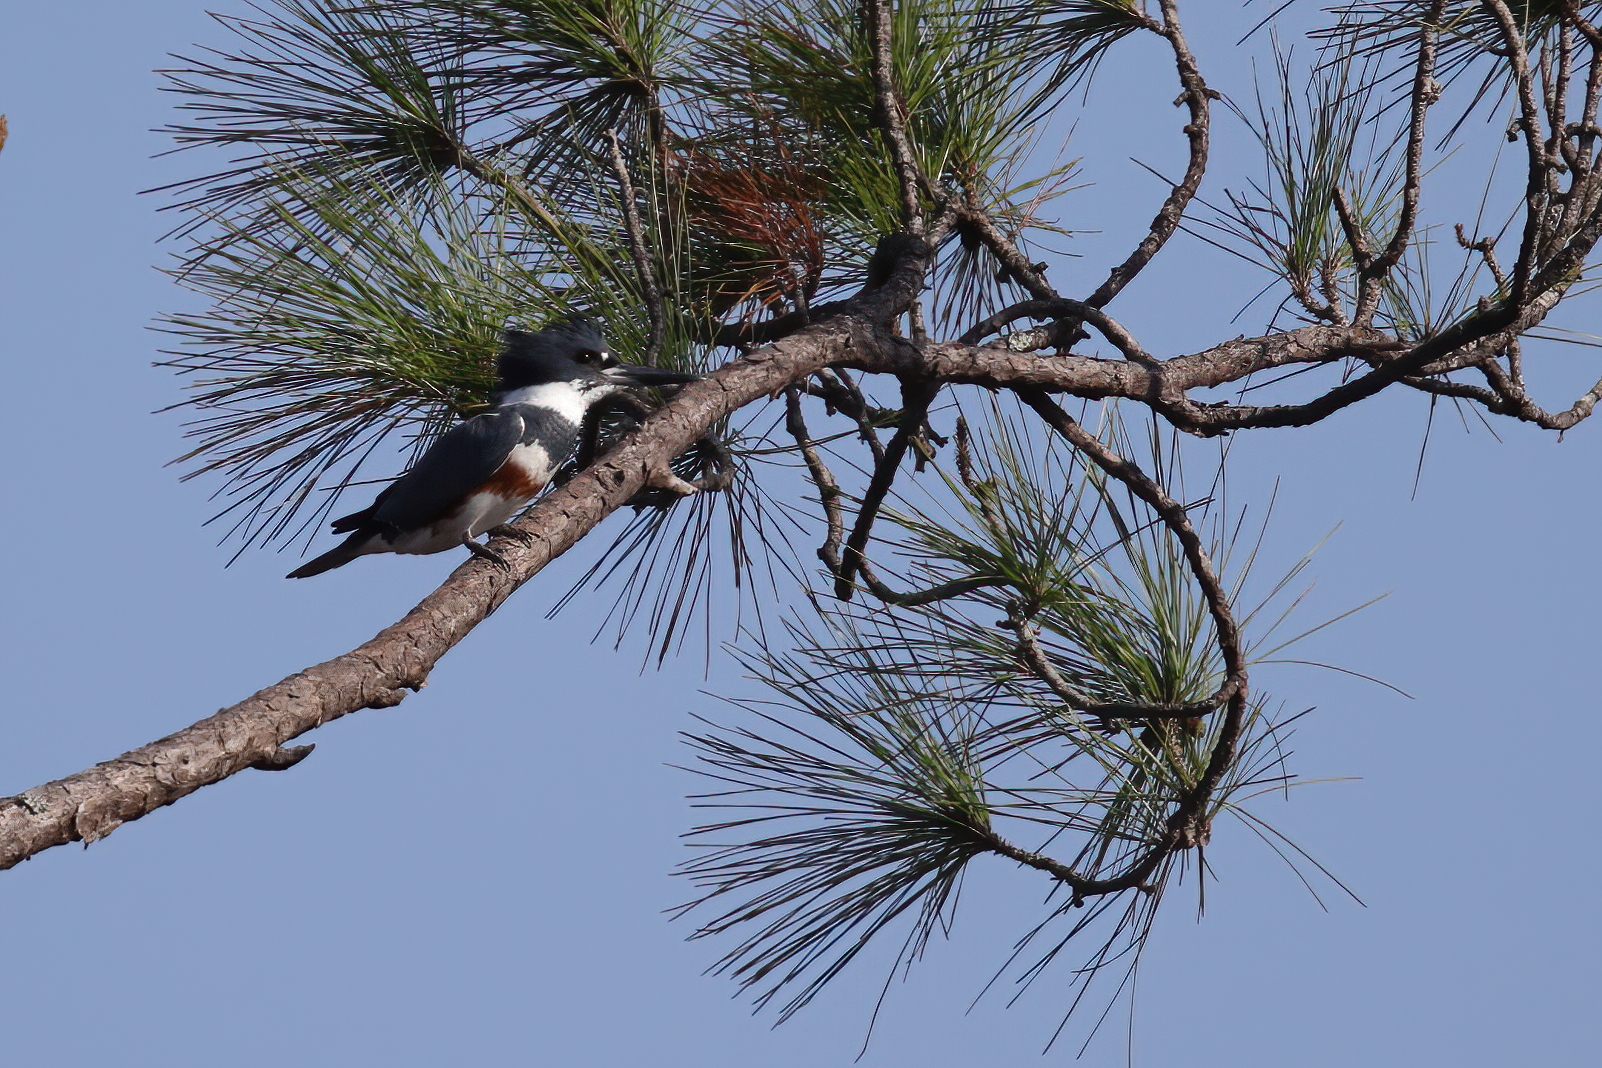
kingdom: Animalia
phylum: Chordata
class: Aves
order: Coraciiformes
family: Alcedinidae
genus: Megaceryle
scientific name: Megaceryle alcyon
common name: Belted kingfisher
